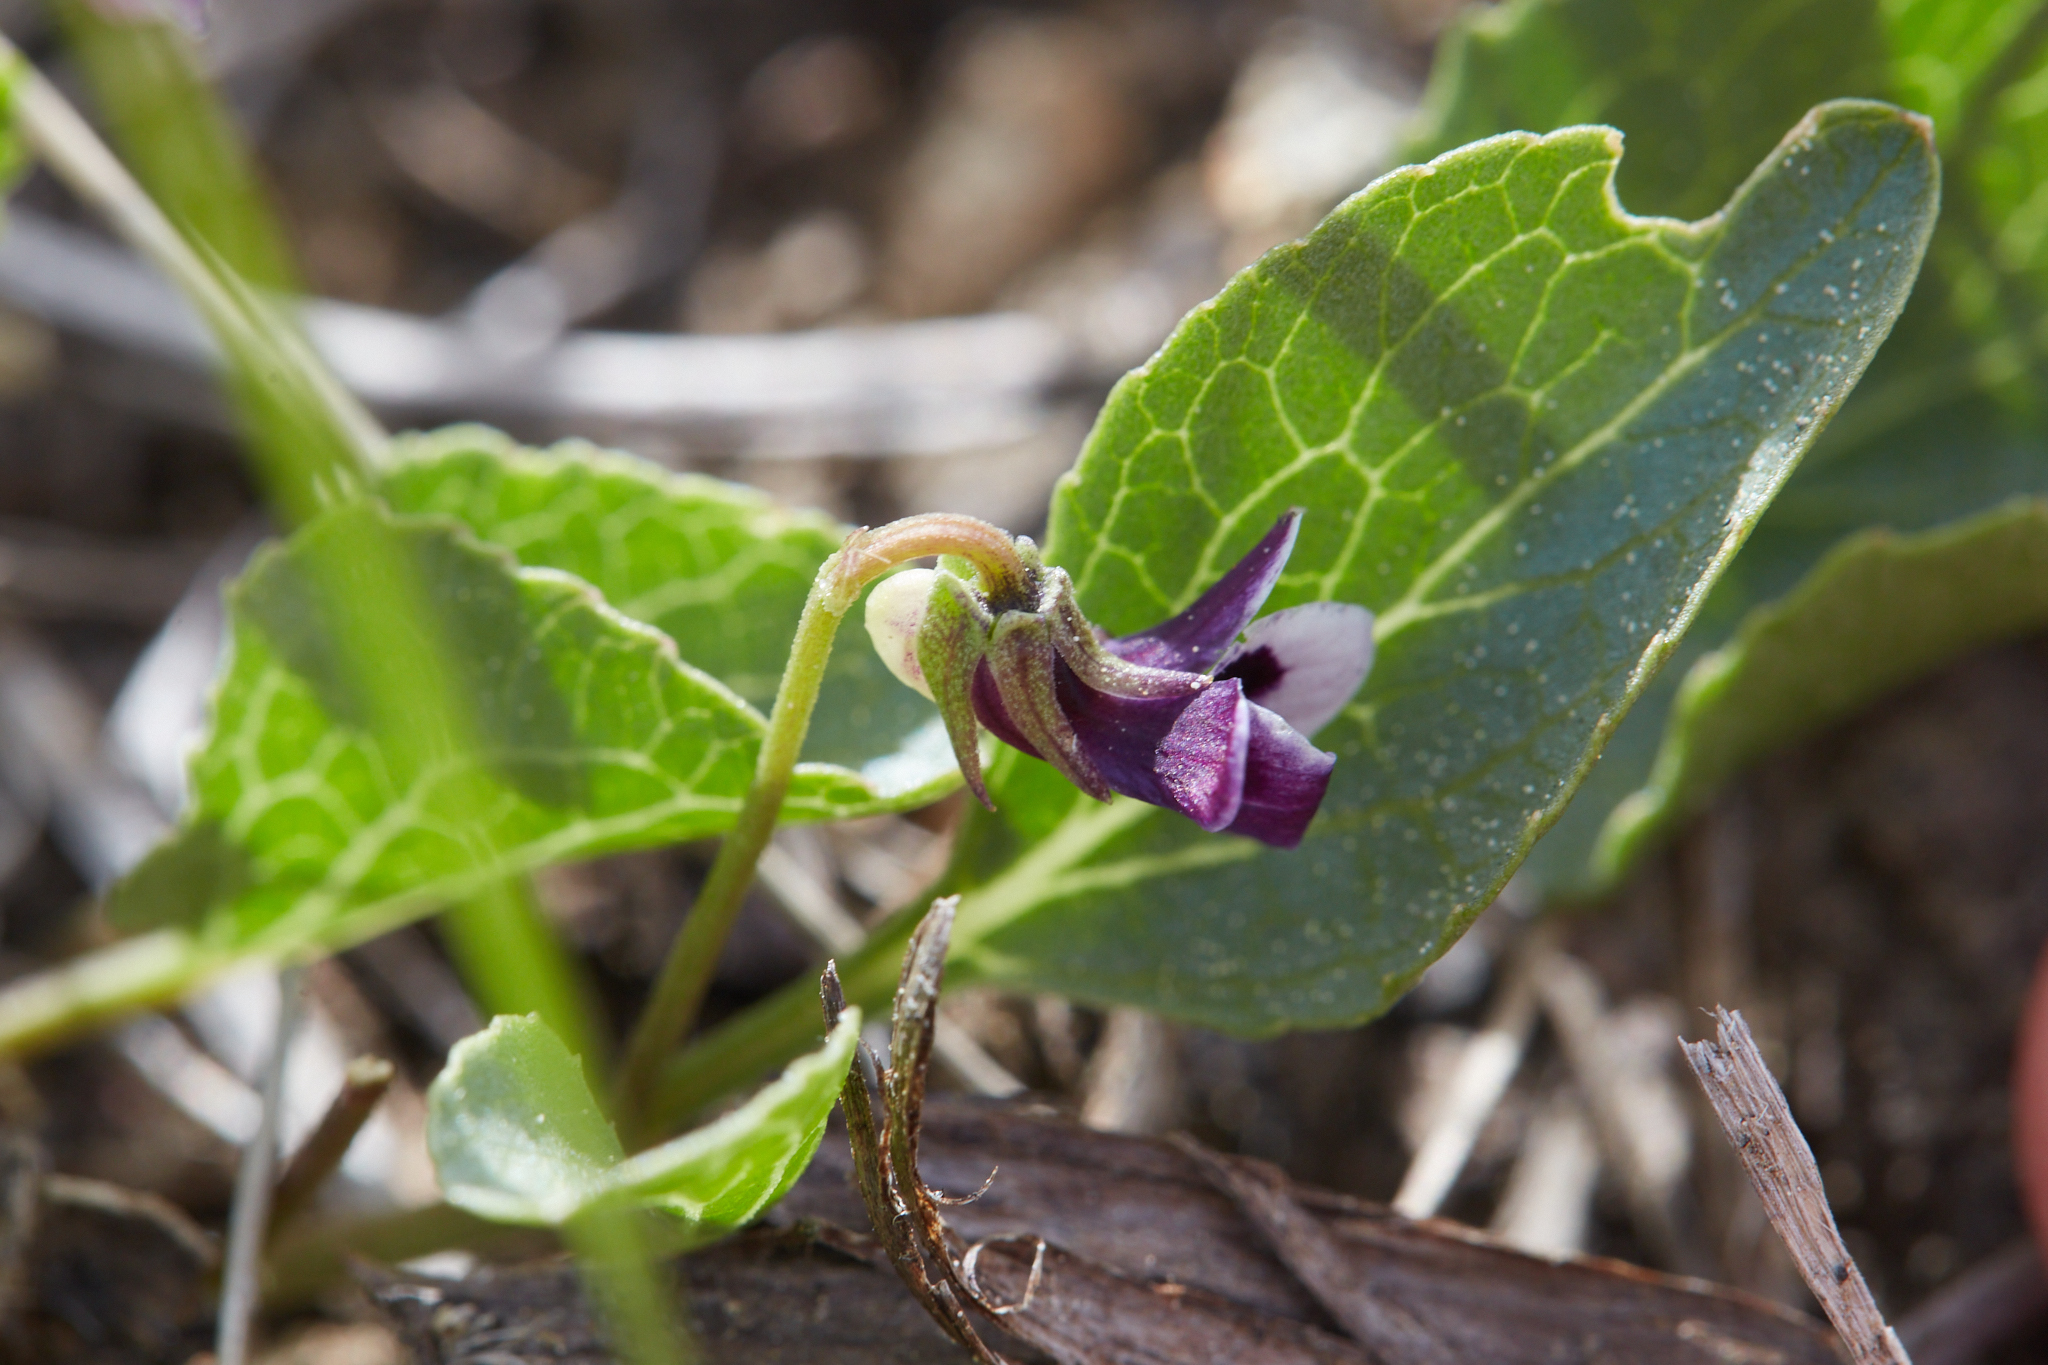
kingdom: Plantae
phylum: Tracheophyta
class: Magnoliopsida
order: Malpighiales
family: Violaceae
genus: Viola
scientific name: Viola cuneata
